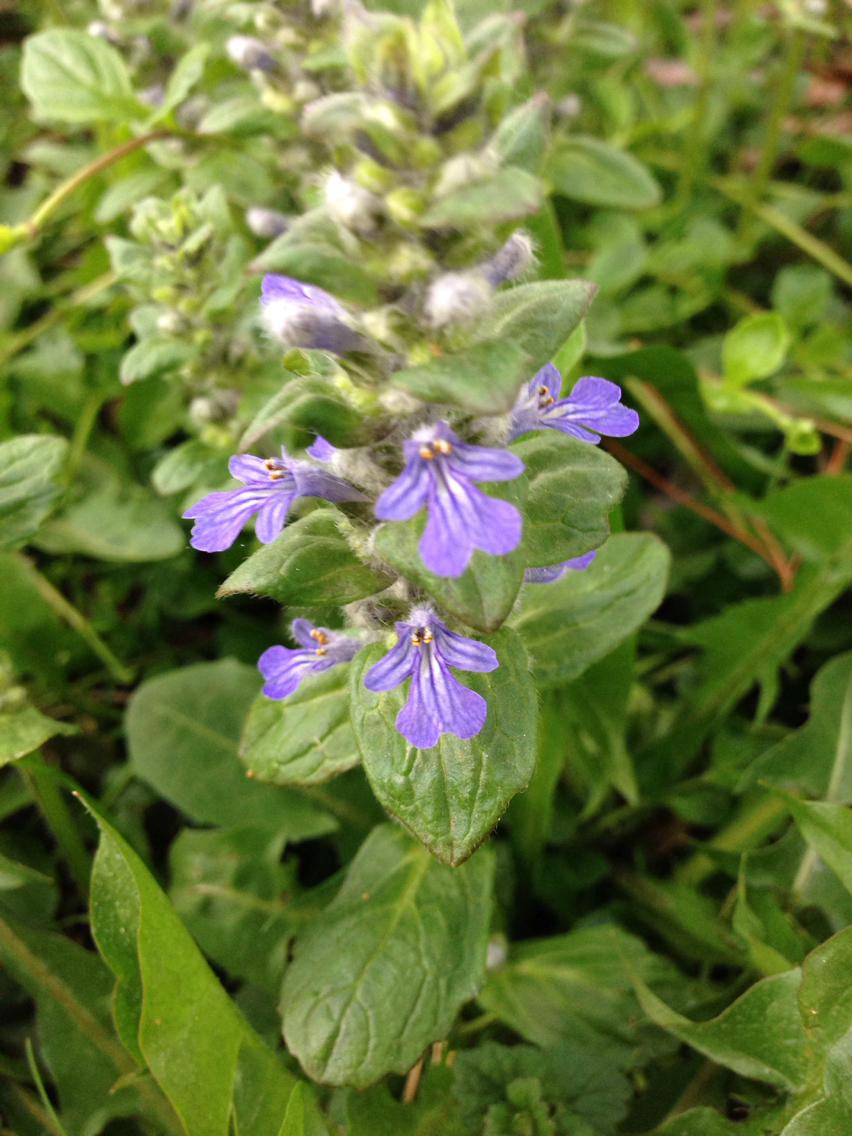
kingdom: Plantae
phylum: Tracheophyta
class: Magnoliopsida
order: Lamiales
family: Lamiaceae
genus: Ajuga
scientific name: Ajuga reptans
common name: Bugle
